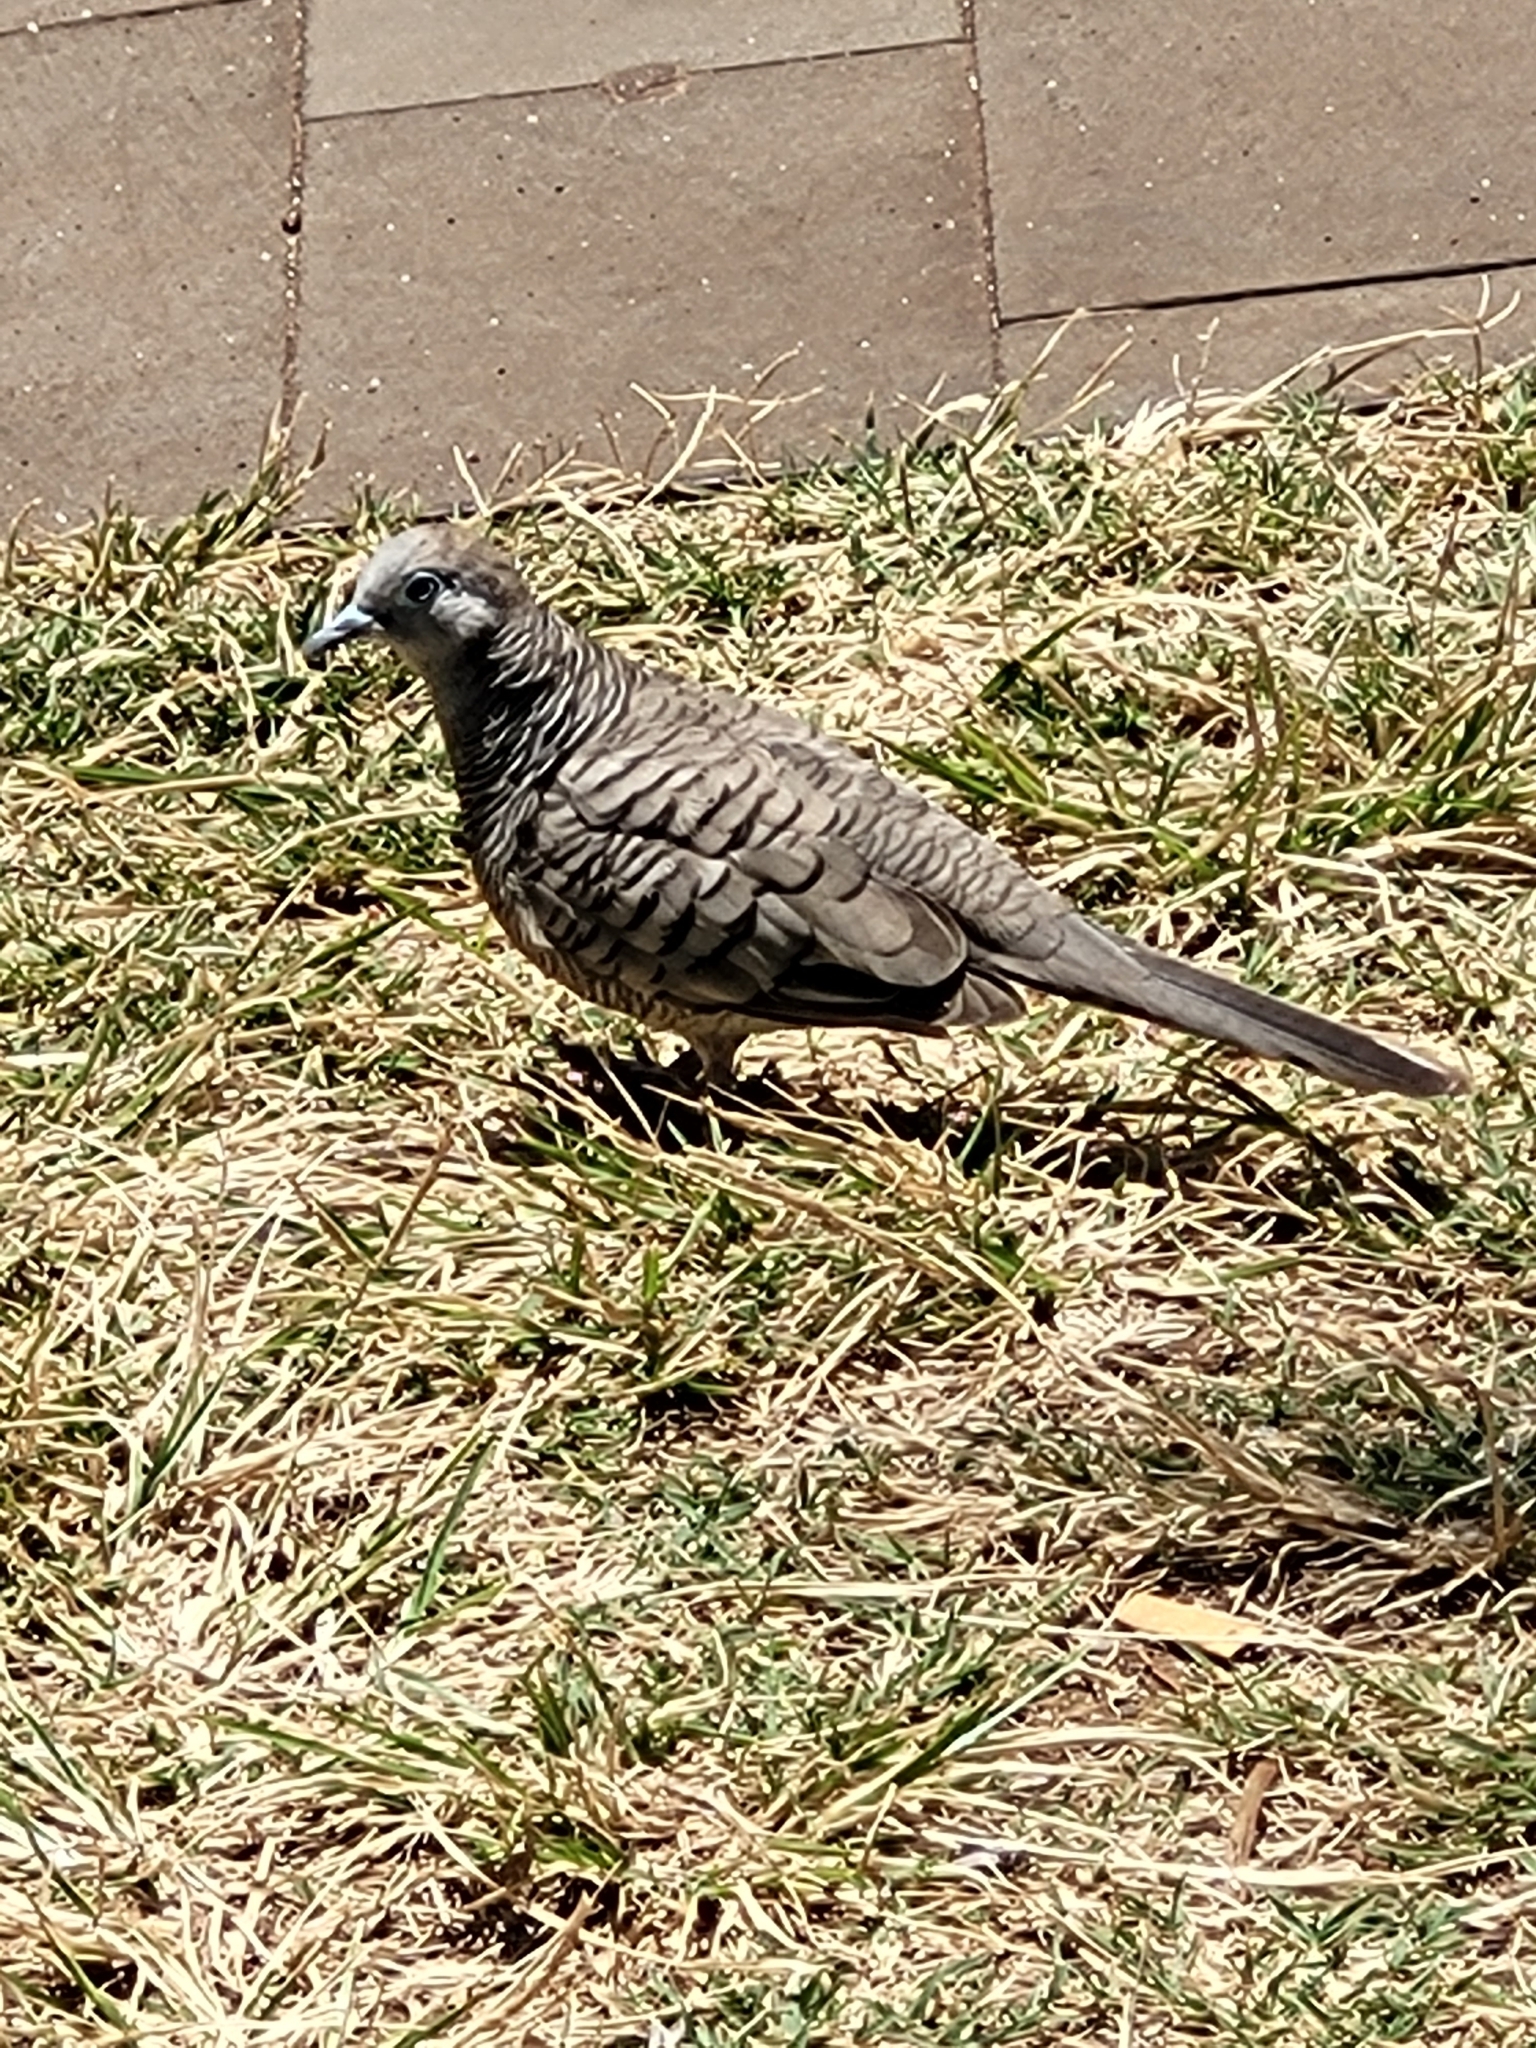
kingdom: Animalia
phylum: Chordata
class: Aves
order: Columbiformes
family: Columbidae
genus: Geopelia
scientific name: Geopelia striata
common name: Zebra dove
